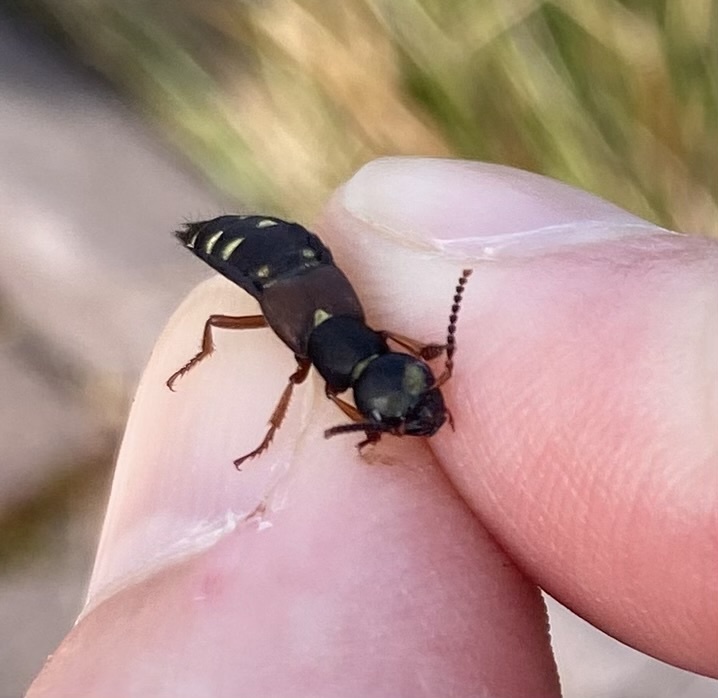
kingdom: Animalia
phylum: Arthropoda
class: Insecta
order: Coleoptera
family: Staphylinidae
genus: Staphylinus
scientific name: Staphylinus erythropterus
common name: Staph beetle
